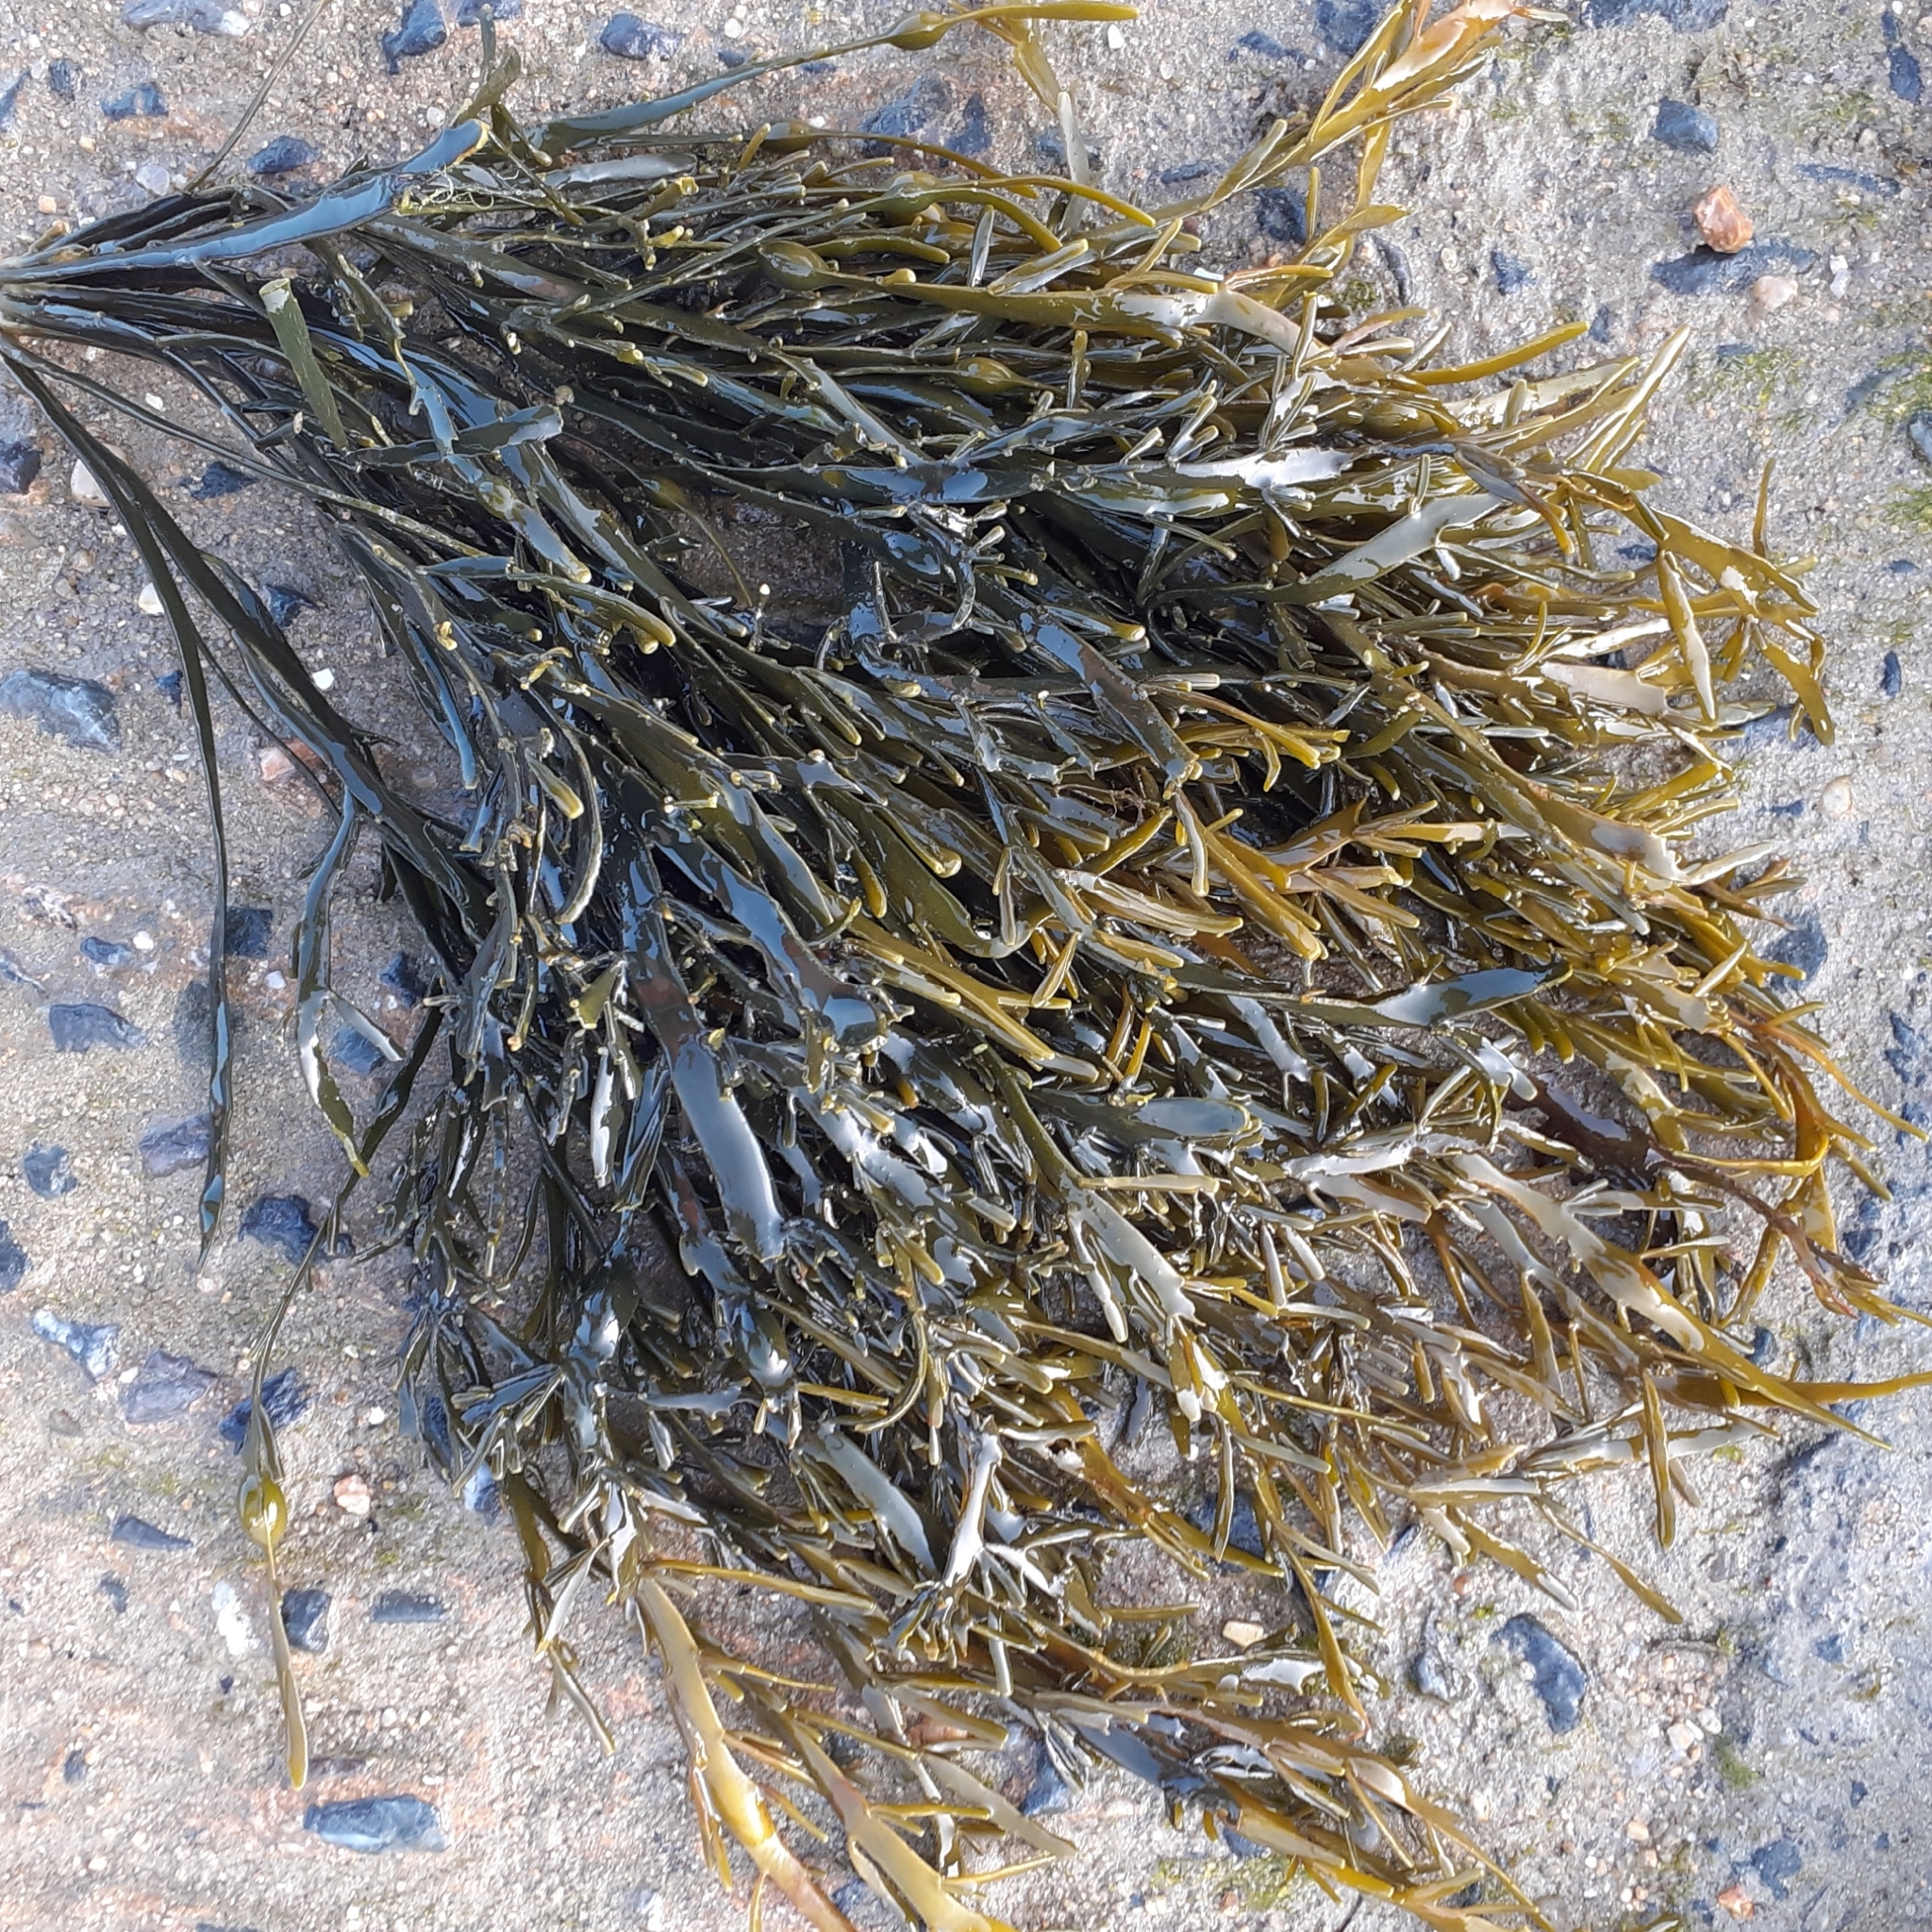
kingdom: Chromista
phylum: Ochrophyta
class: Phaeophyceae
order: Fucales
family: Fucaceae
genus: Ascophyllum
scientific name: Ascophyllum nodosum
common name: Knotted wrack
